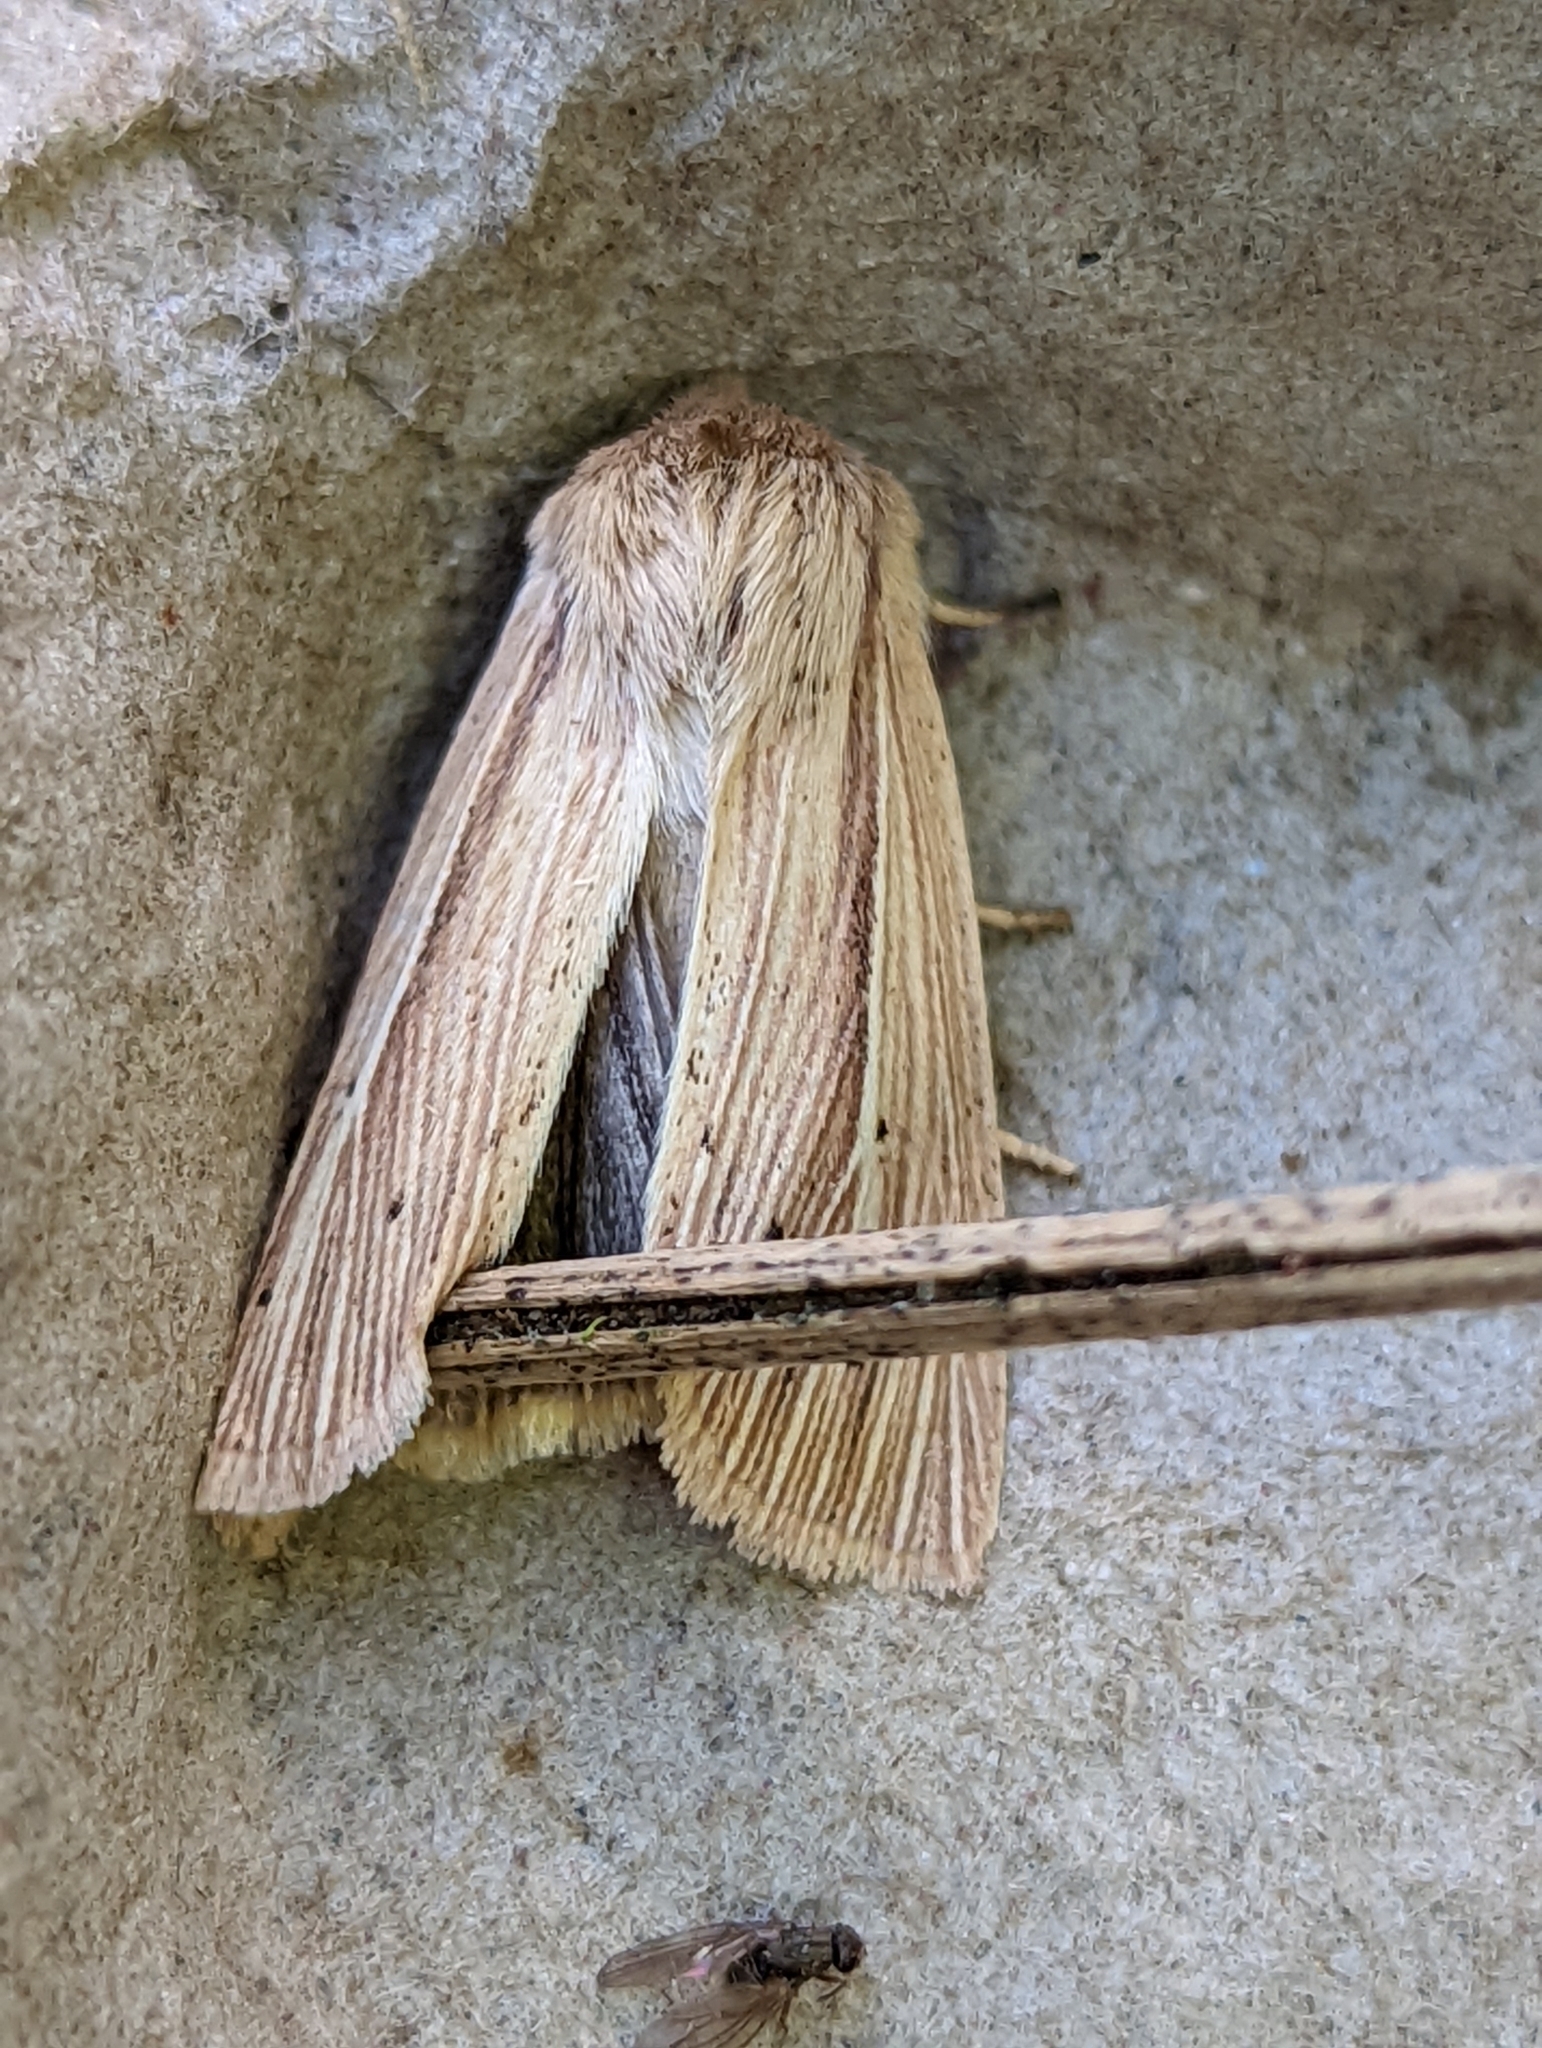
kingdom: Animalia
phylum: Arthropoda
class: Insecta
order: Lepidoptera
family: Noctuidae
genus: Mythimna
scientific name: Mythimna impura
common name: Smoky wainscot
